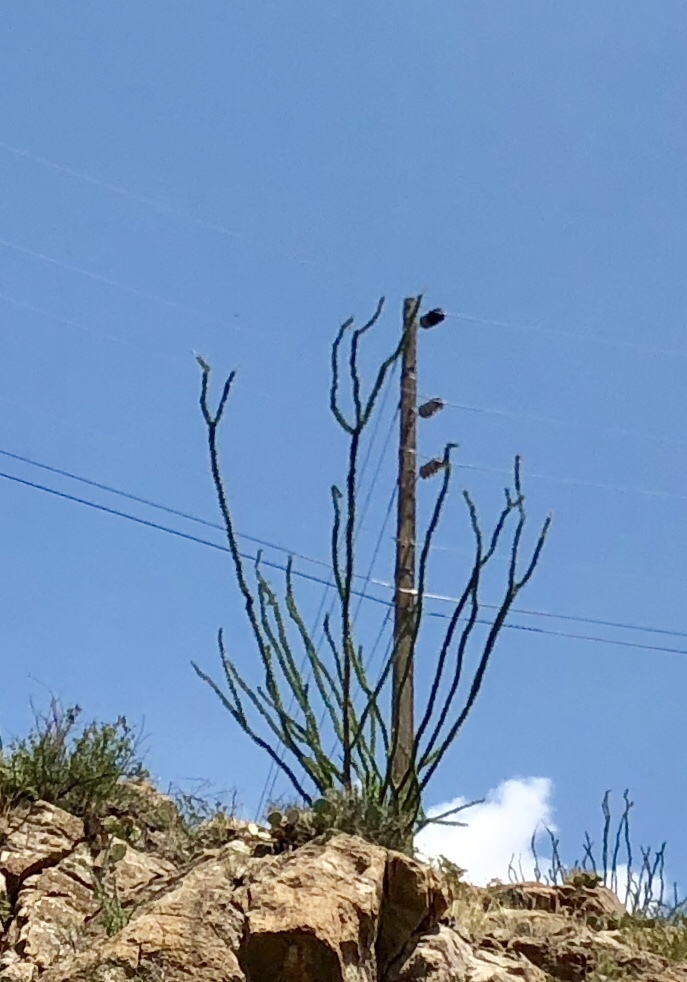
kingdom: Plantae
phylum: Tracheophyta
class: Magnoliopsida
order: Ericales
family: Fouquieriaceae
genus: Fouquieria
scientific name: Fouquieria splendens
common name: Vine-cactus
